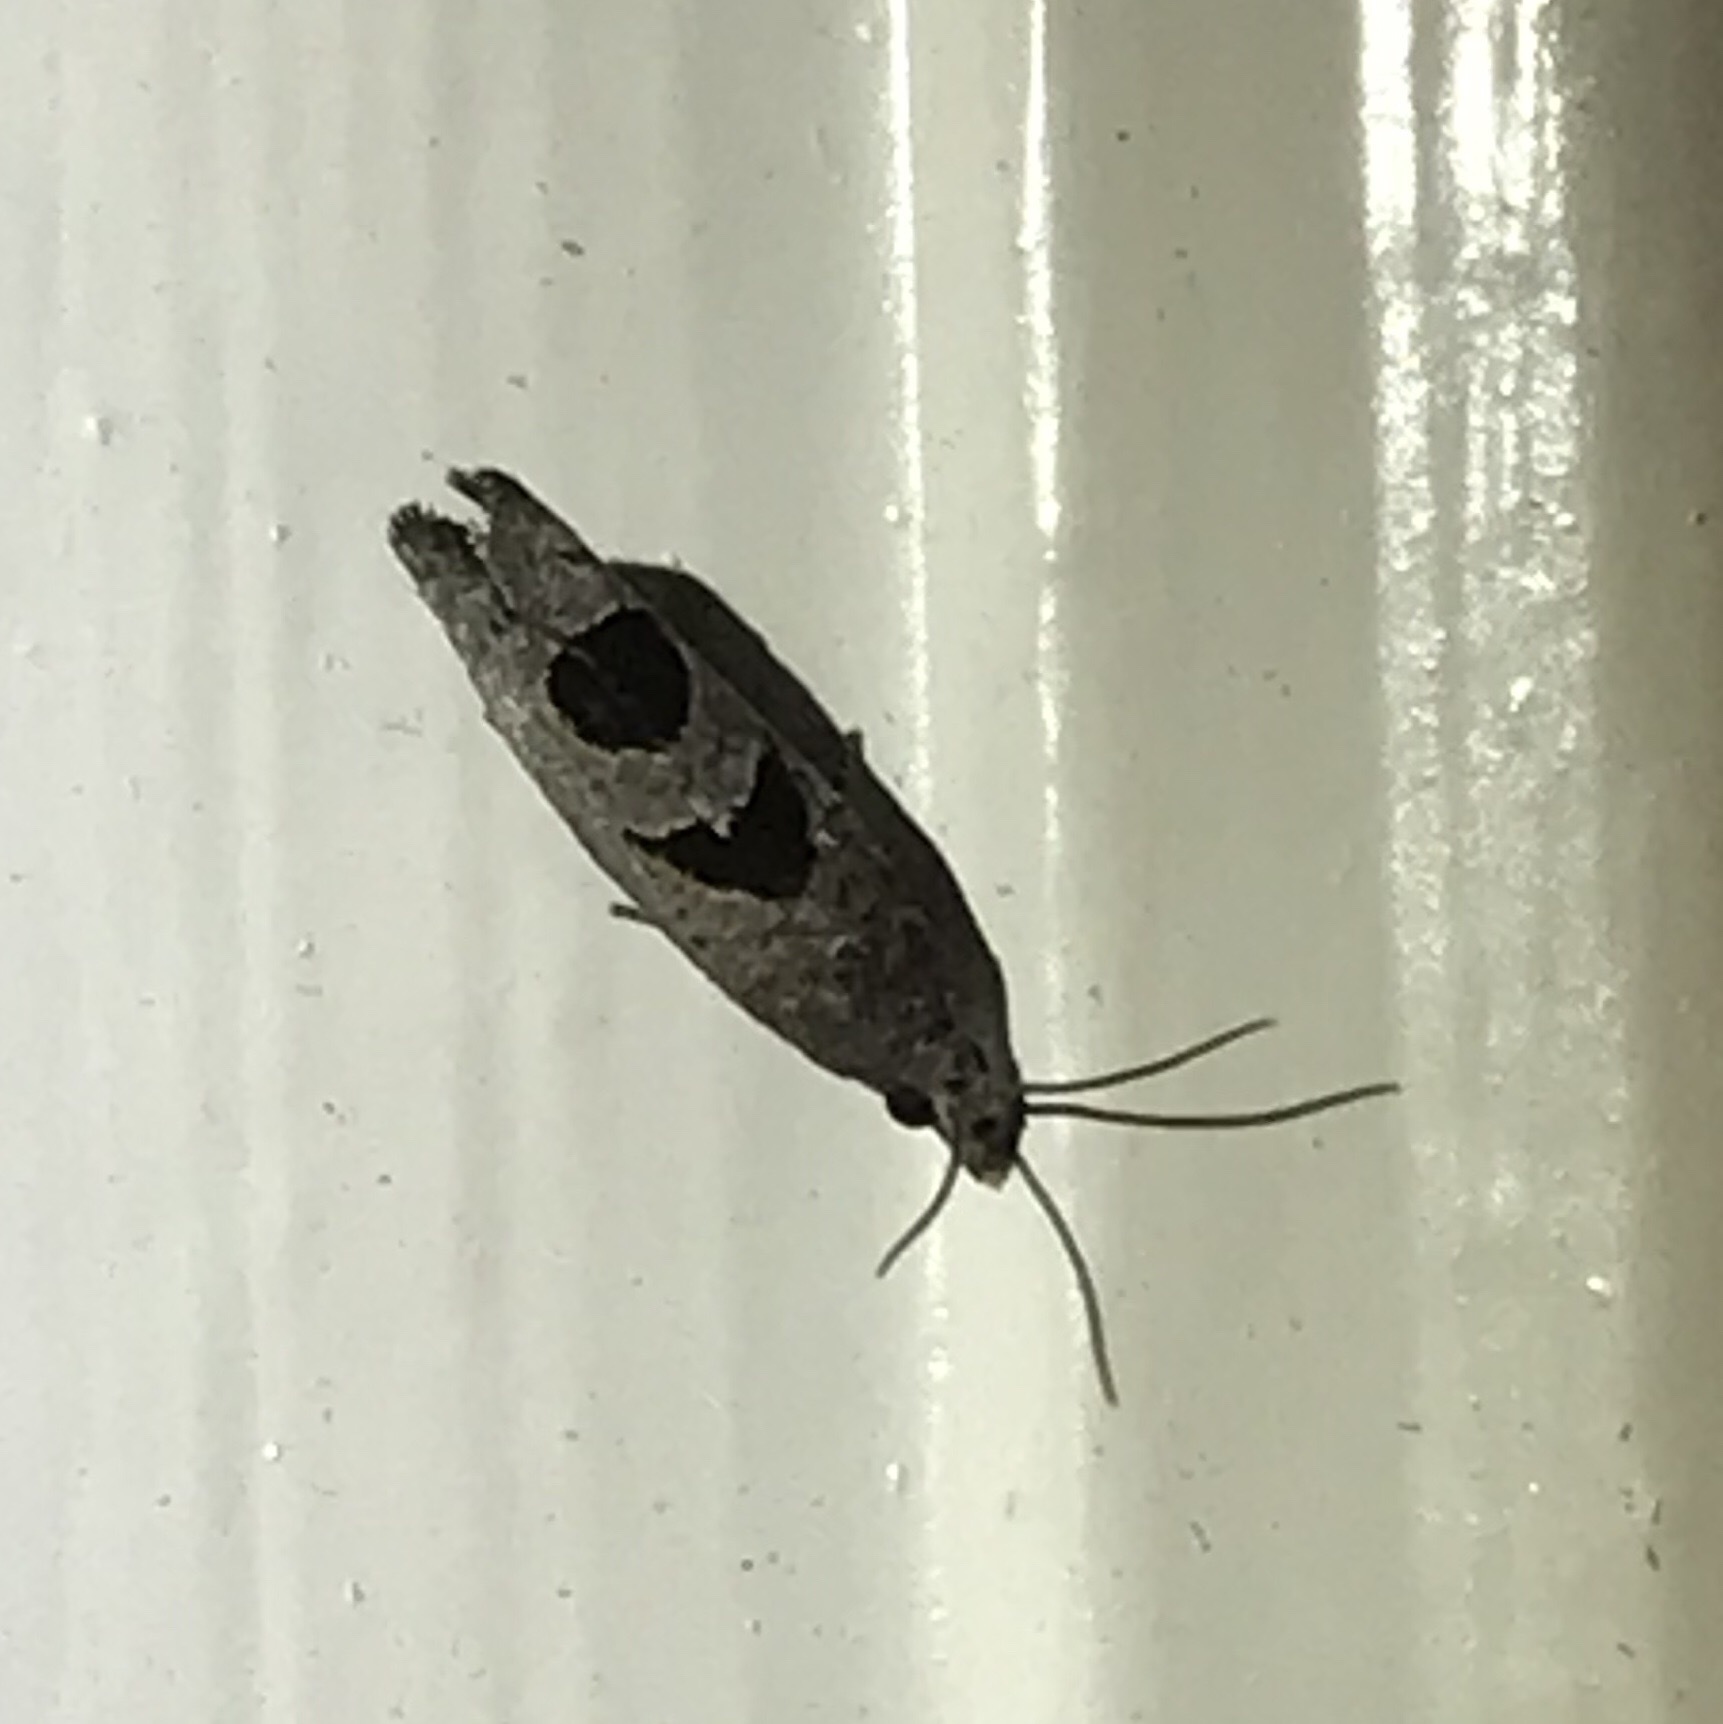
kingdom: Animalia
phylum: Arthropoda
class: Insecta
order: Lepidoptera
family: Tortricidae
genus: Eucosma
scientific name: Eucosma tomonana
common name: Aster-head eucosma moth
